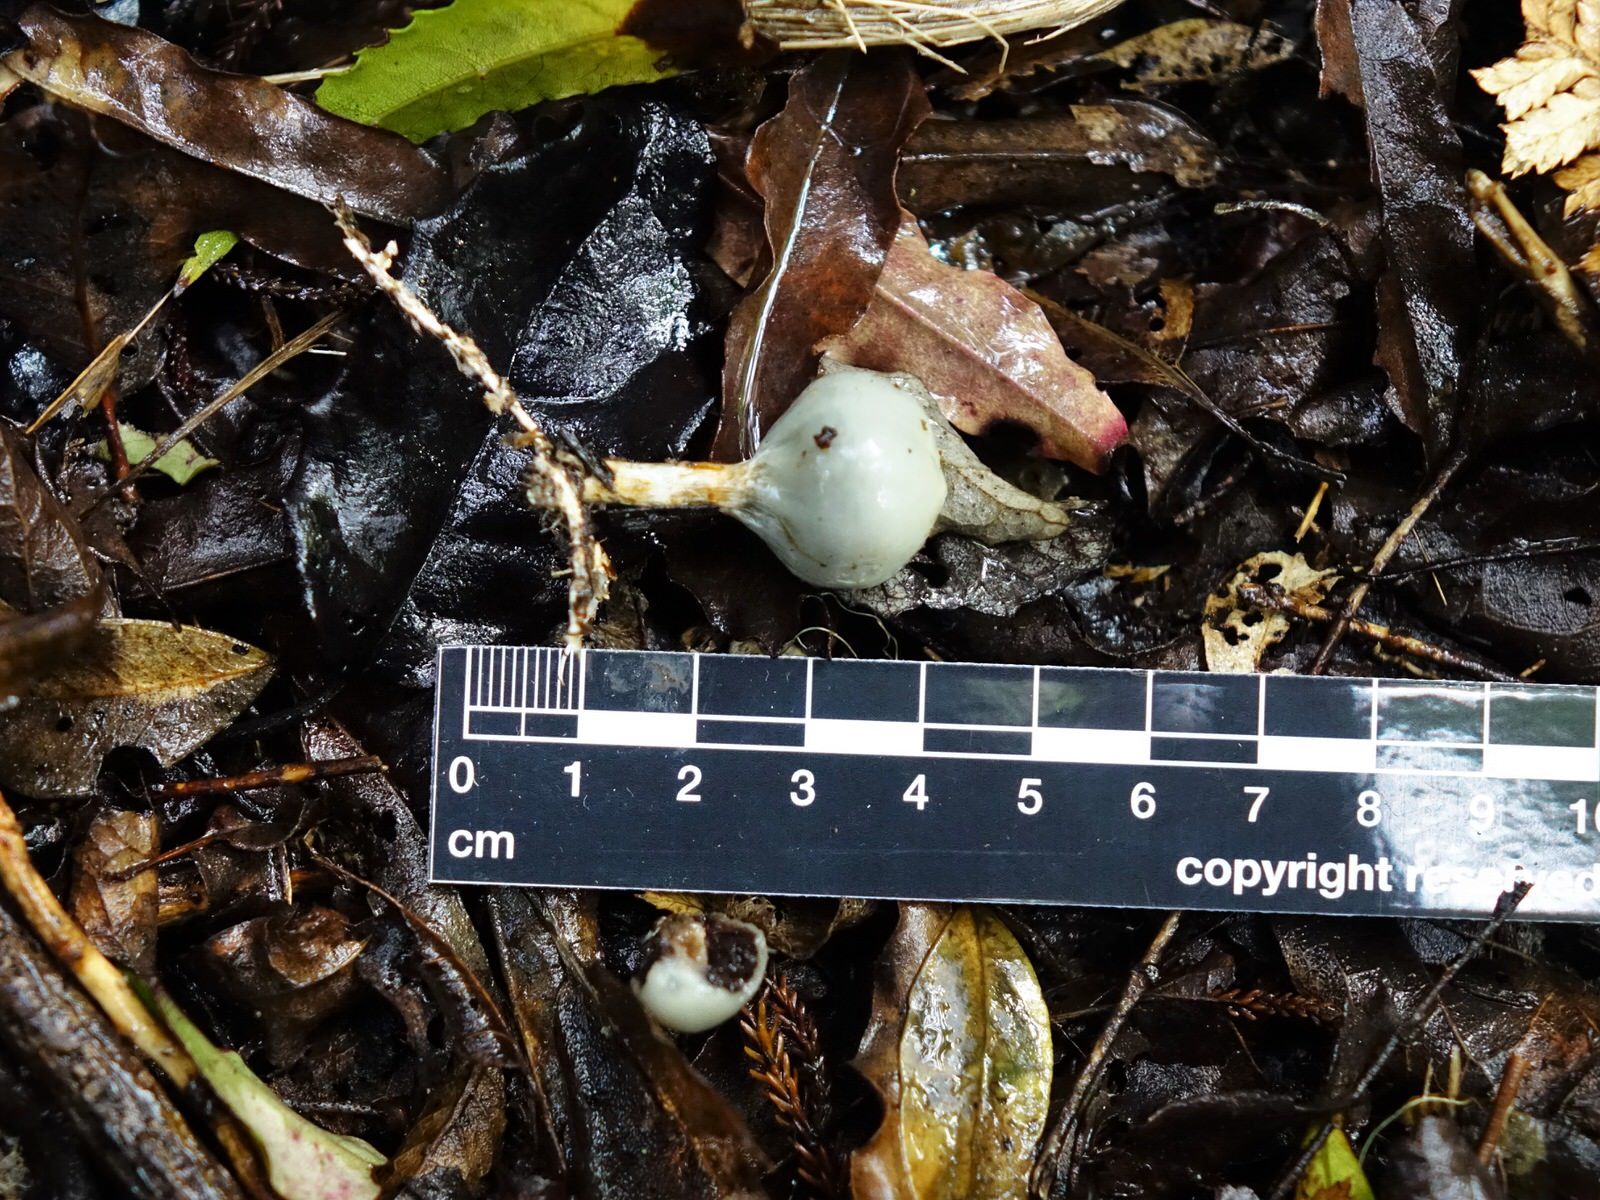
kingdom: Fungi
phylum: Basidiomycota
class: Agaricomycetes
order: Agaricales
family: Hymenogastraceae
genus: Psilocybe
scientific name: Psilocybe weraroa
